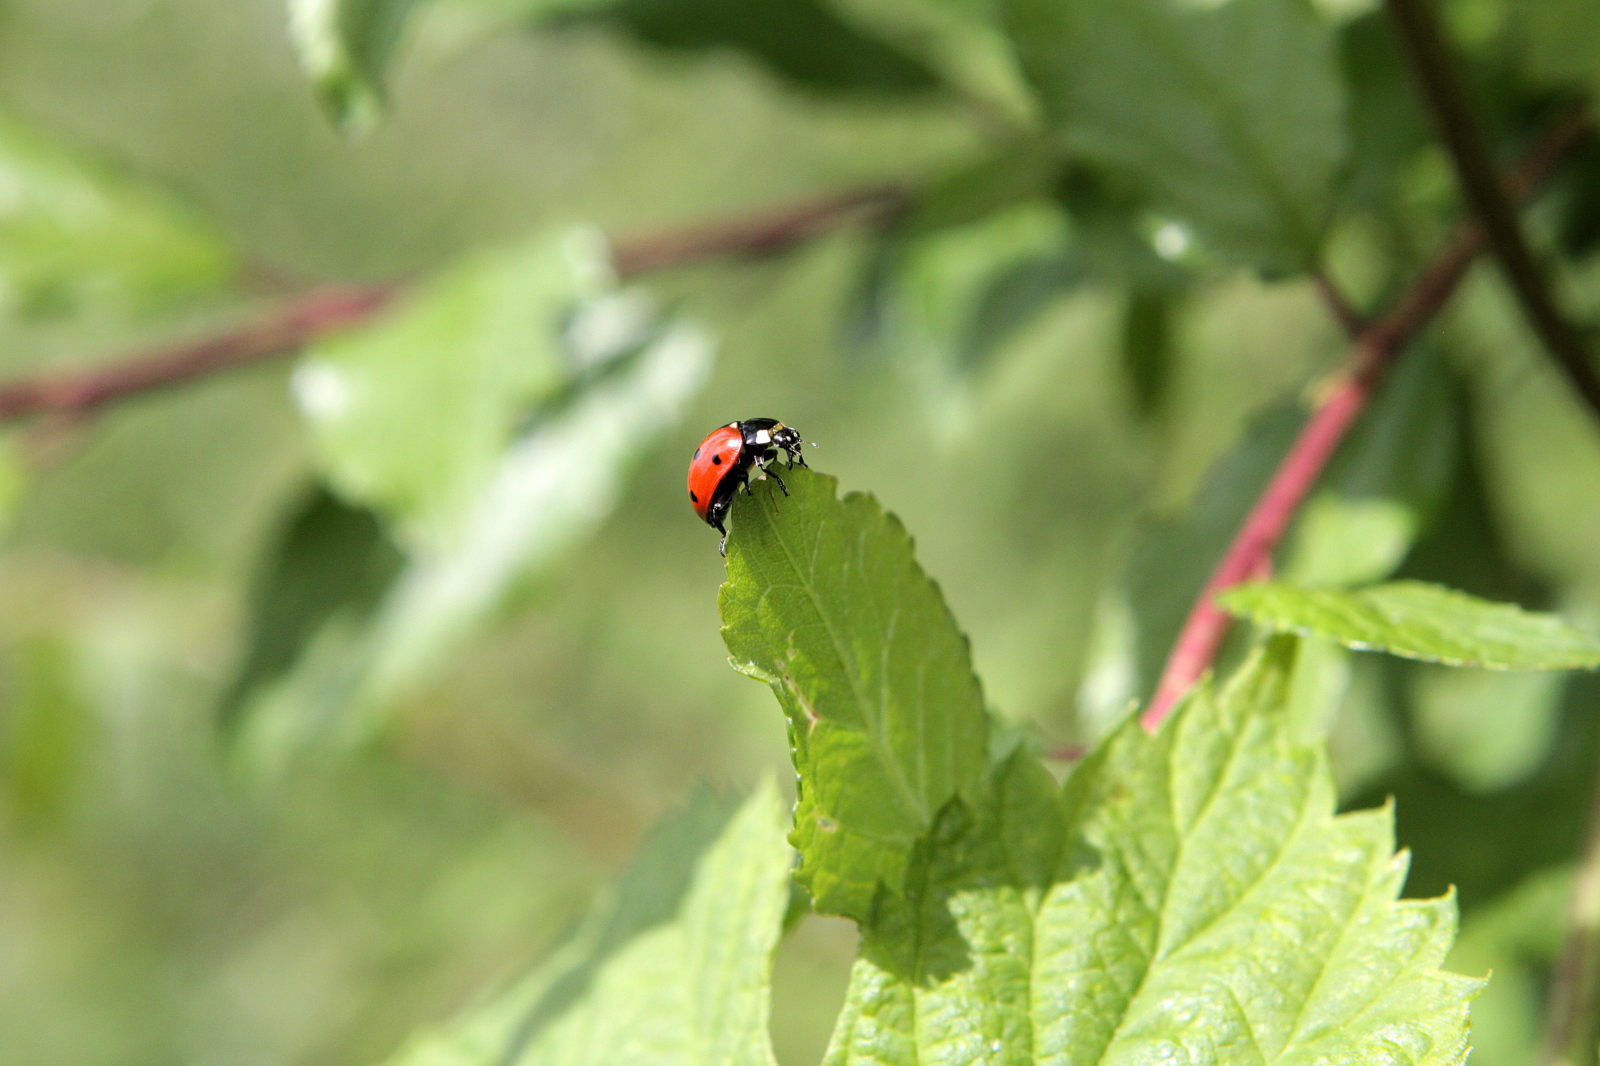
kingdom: Animalia
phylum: Arthropoda
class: Insecta
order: Coleoptera
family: Coccinellidae
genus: Coccinella
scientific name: Coccinella septempunctata
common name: Sevenspotted lady beetle
